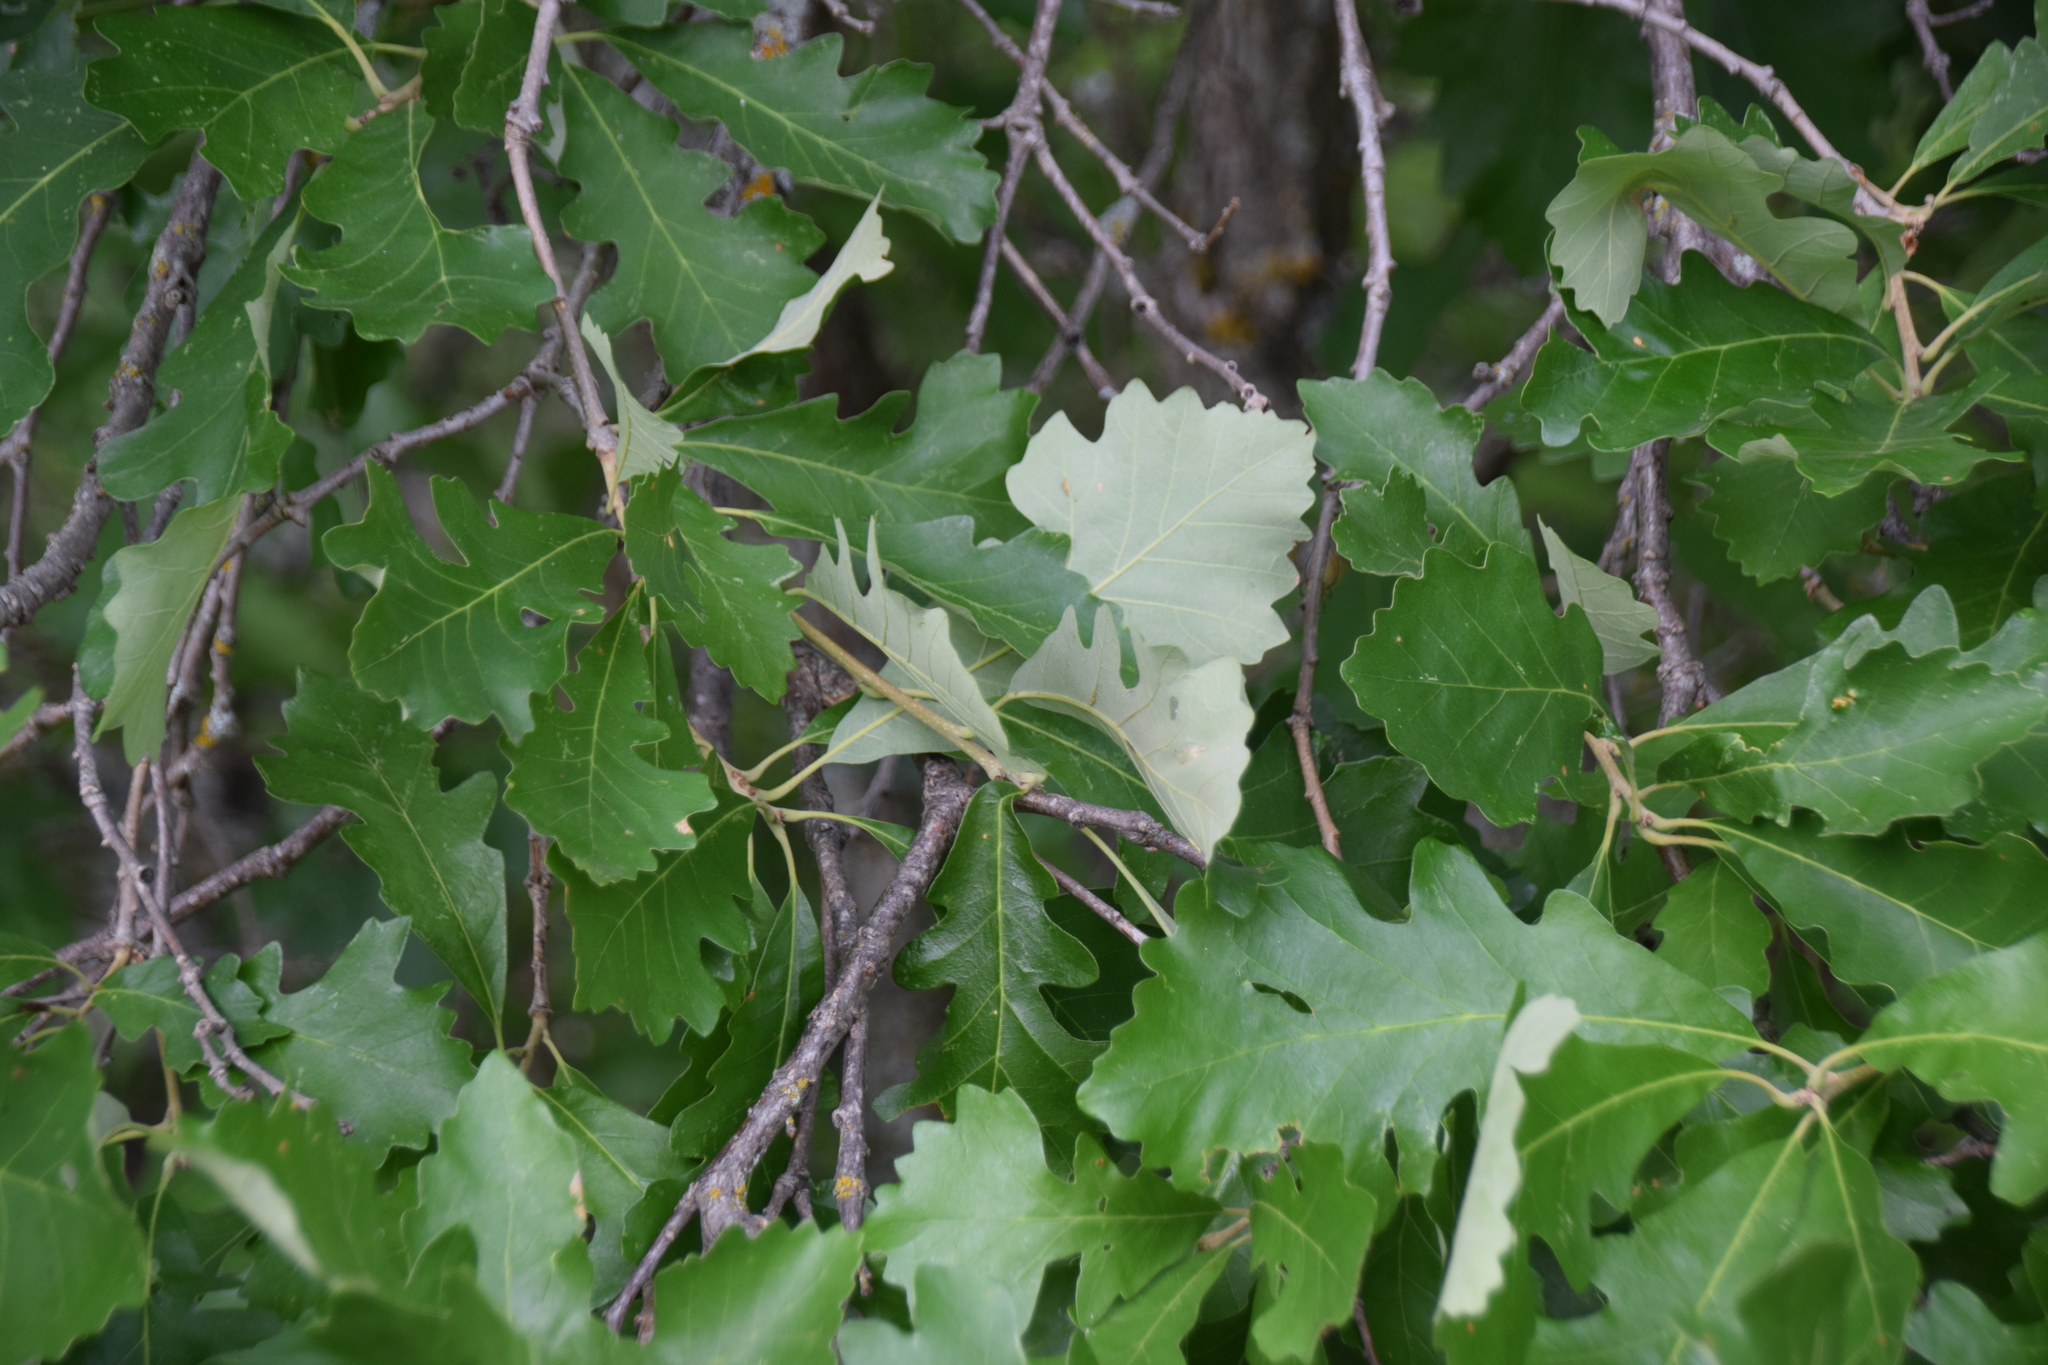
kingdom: Plantae
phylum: Tracheophyta
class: Magnoliopsida
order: Fagales
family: Fagaceae
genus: Quercus
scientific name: Quercus macrocarpa
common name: Bur oak
